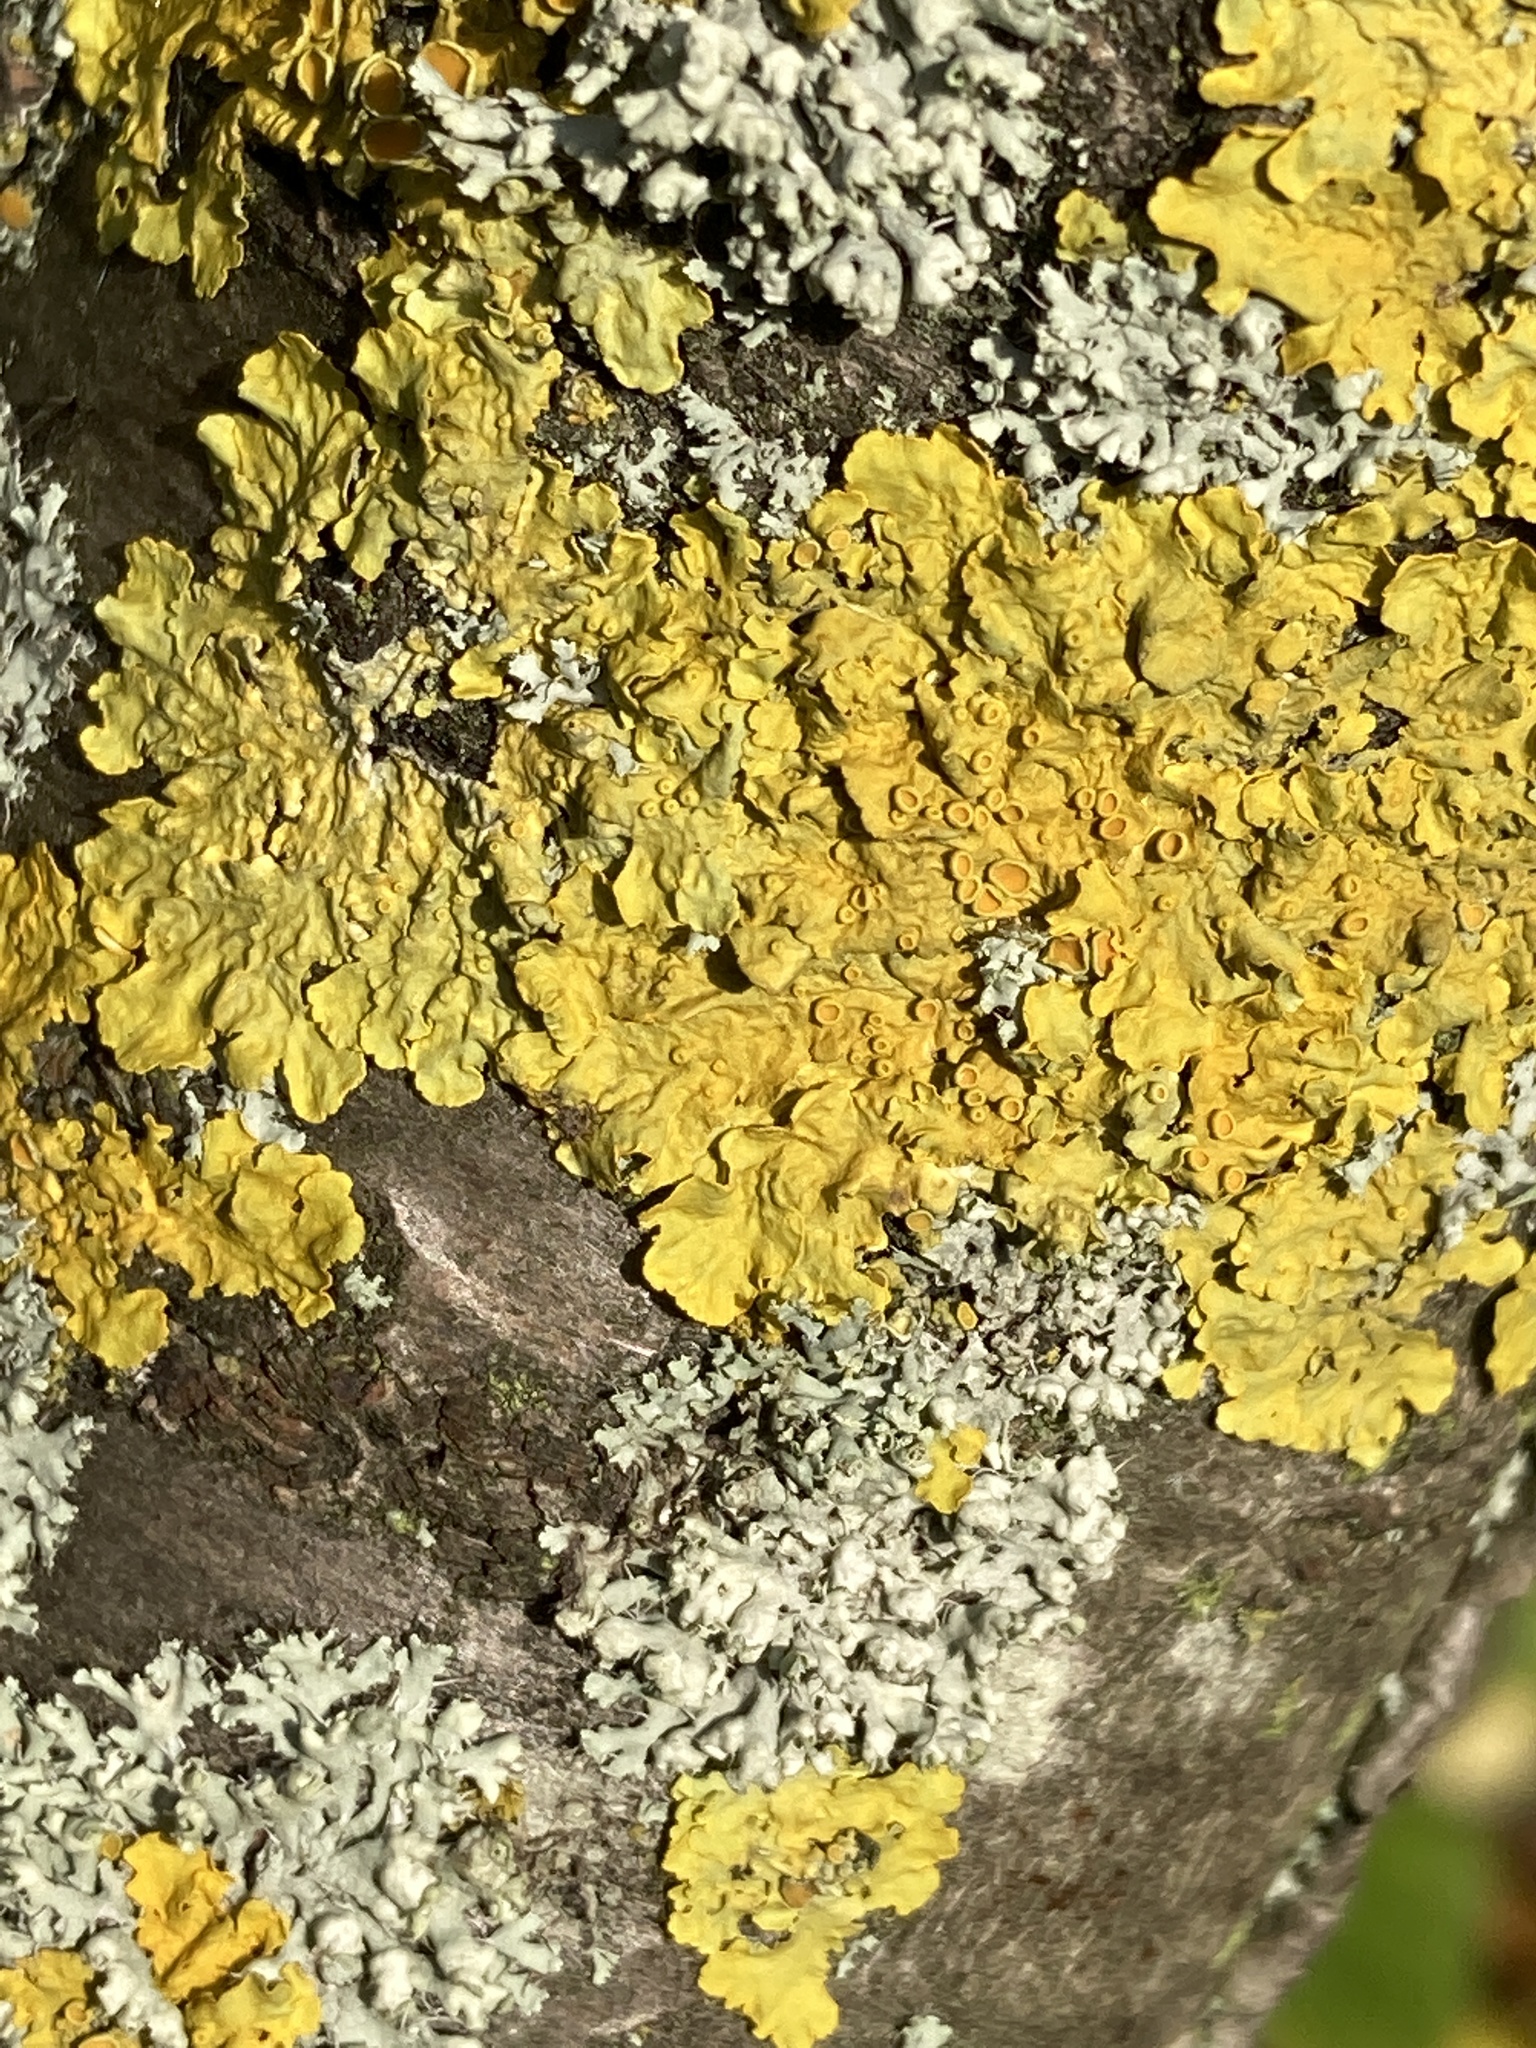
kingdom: Fungi
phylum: Ascomycota
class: Lecanoromycetes
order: Teloschistales
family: Teloschistaceae
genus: Xanthoria
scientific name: Xanthoria parietina
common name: Common orange lichen
